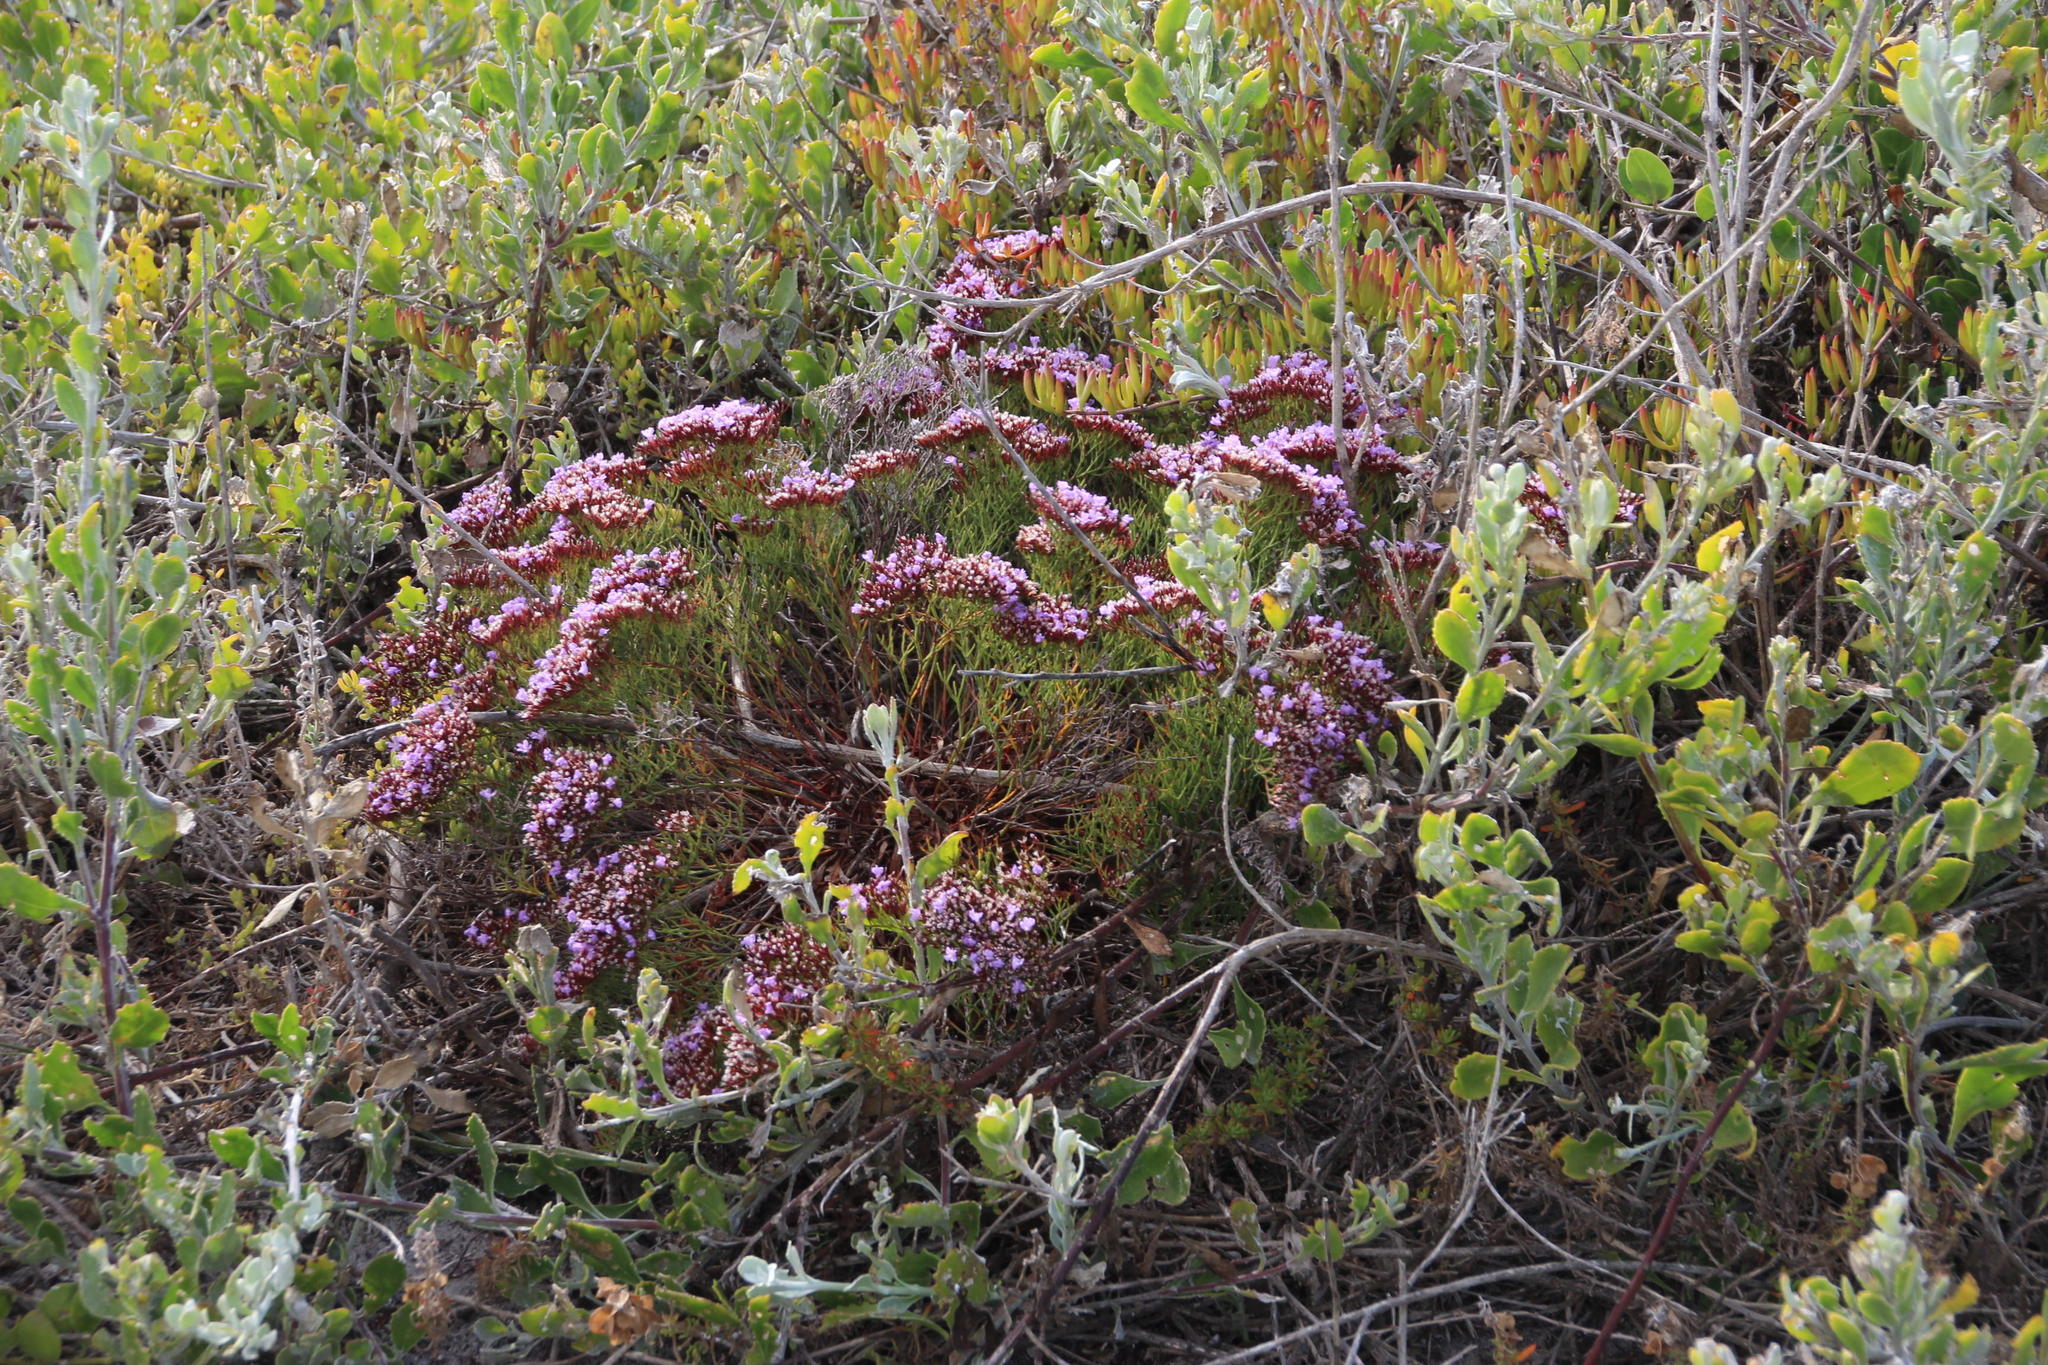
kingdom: Plantae
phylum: Tracheophyta
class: Magnoliopsida
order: Caryophyllales
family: Plumbaginaceae
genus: Limonium
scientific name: Limonium scabrum
